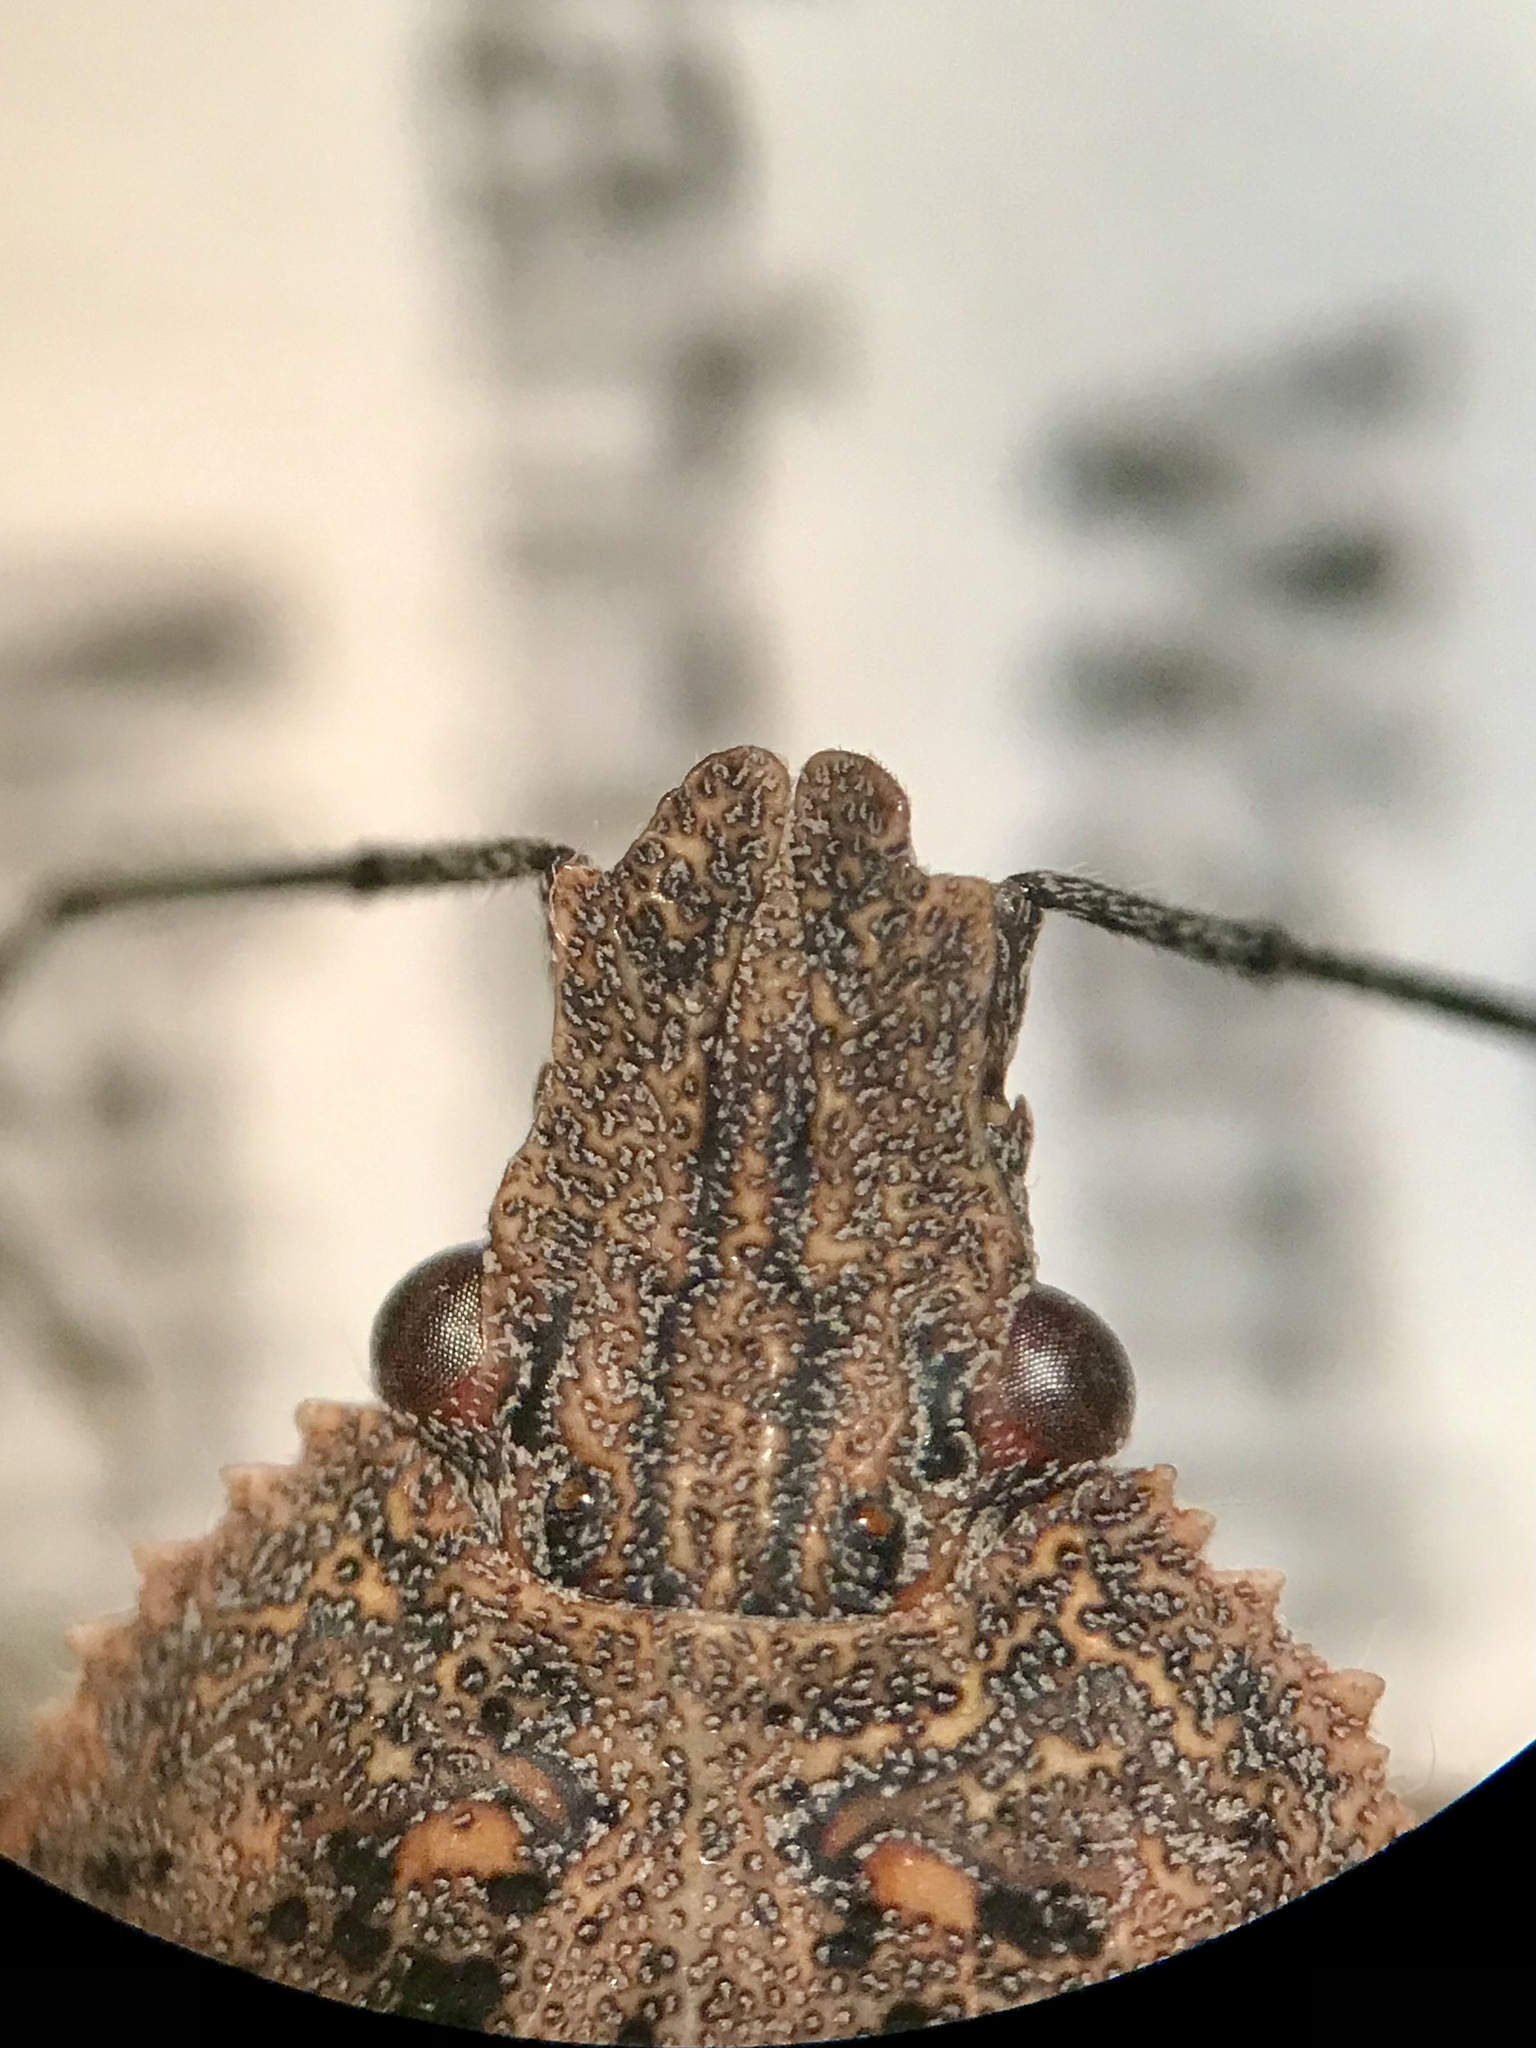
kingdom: Animalia
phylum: Arthropoda
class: Insecta
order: Hemiptera
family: Pentatomidae
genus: Brochymena
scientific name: Brochymena quadripustulata
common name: Four-humped stink bug
